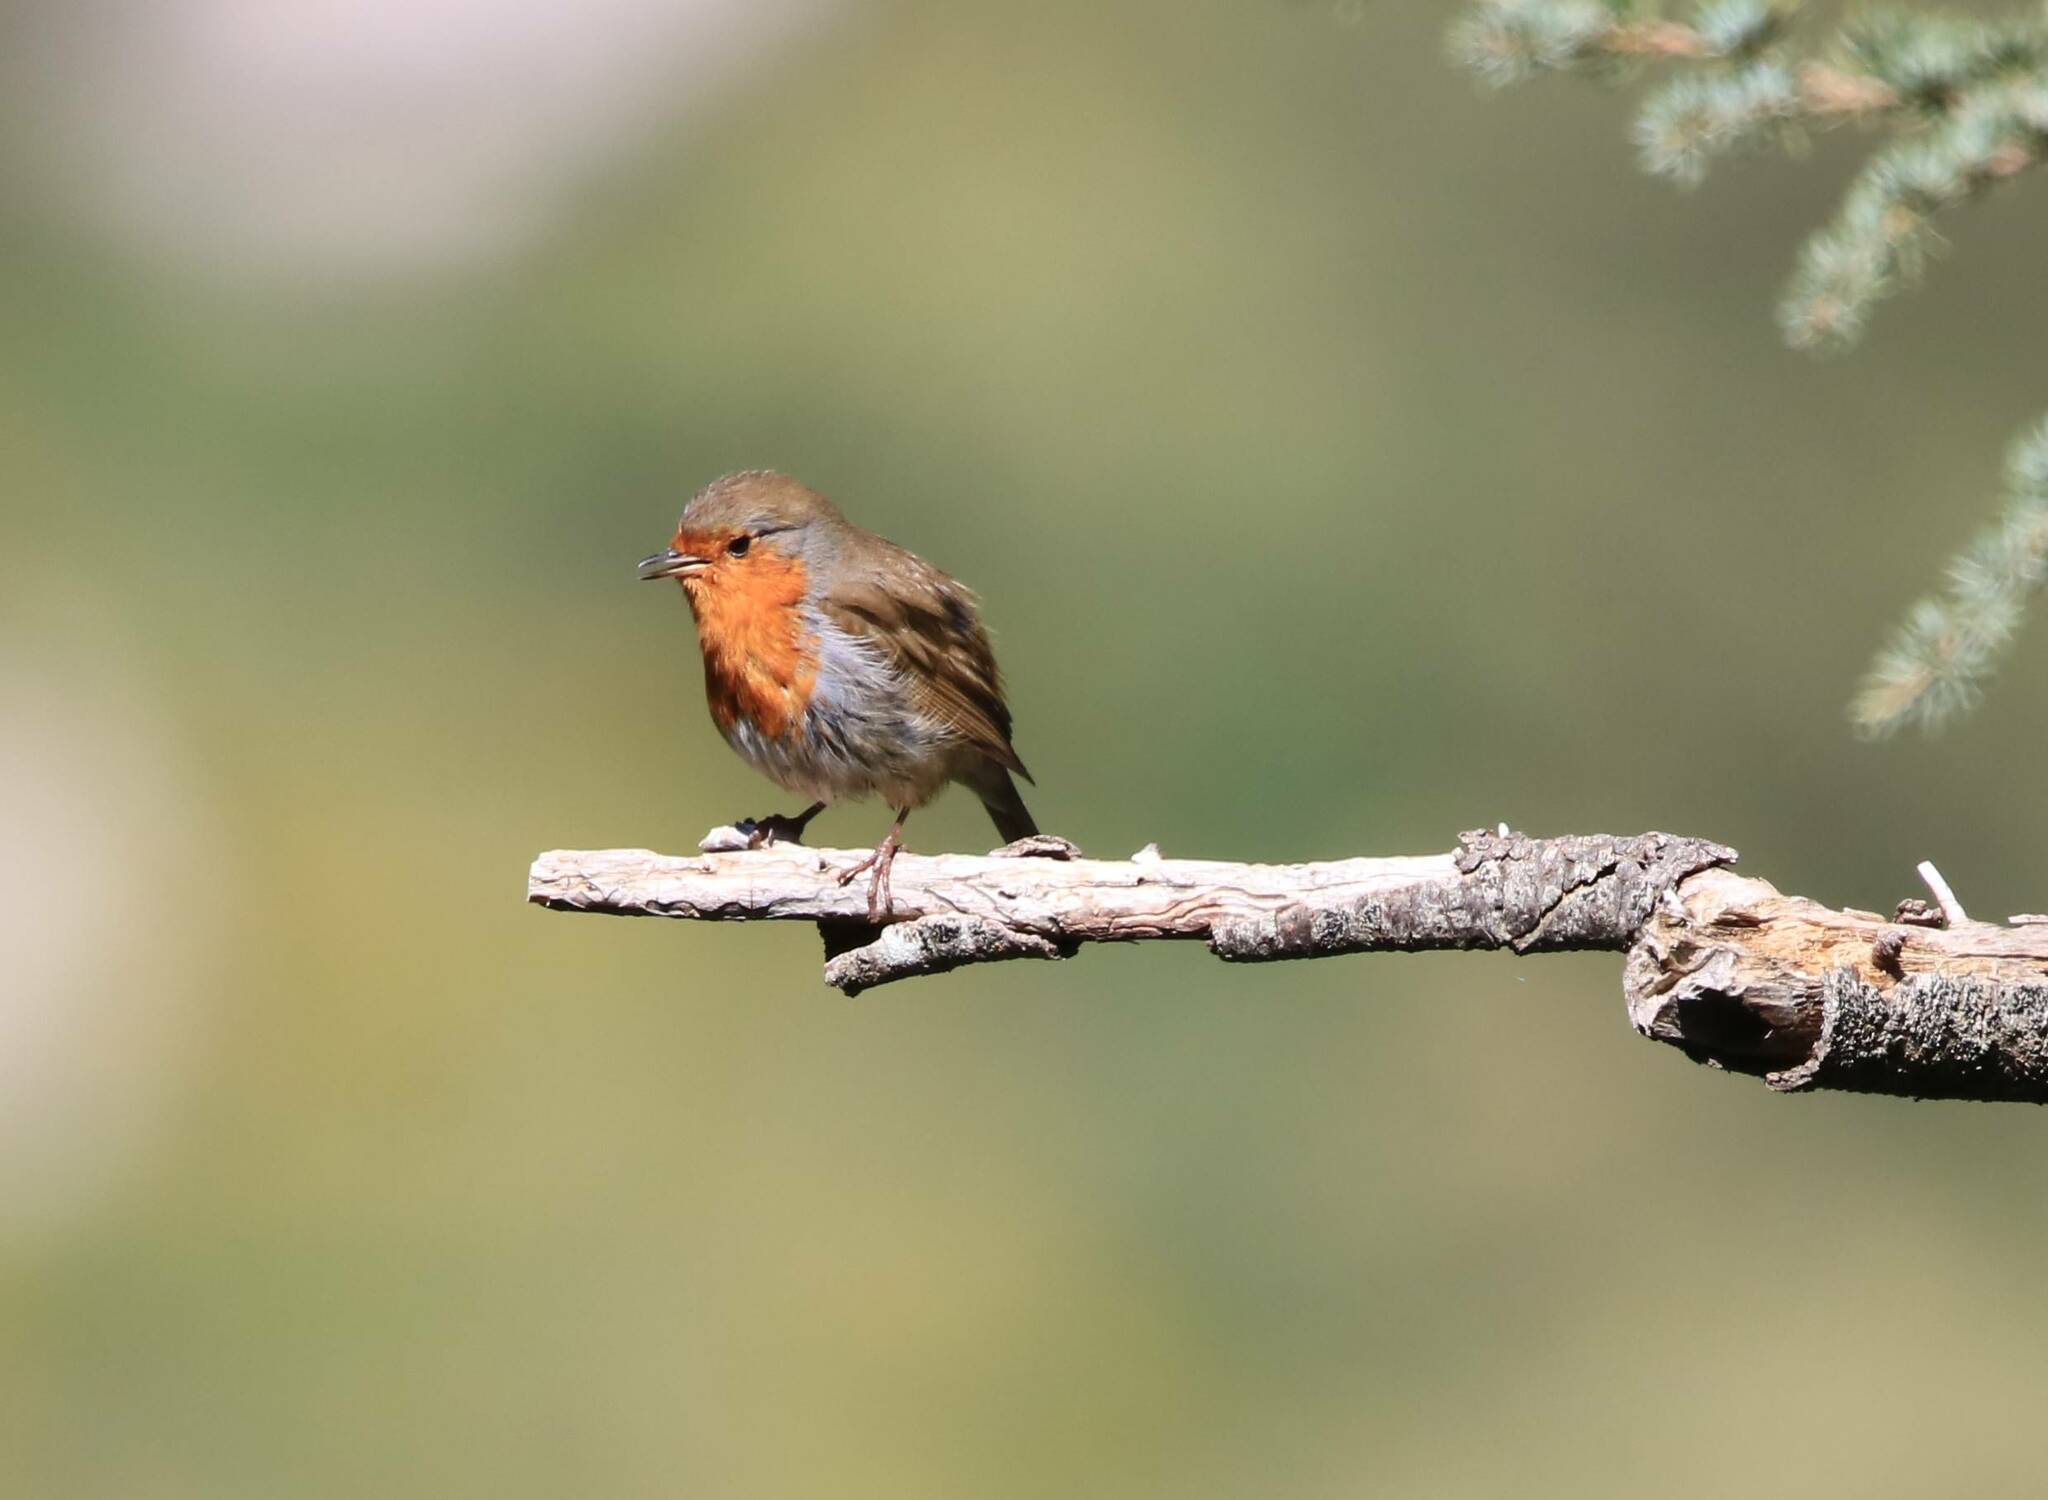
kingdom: Animalia
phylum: Chordata
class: Aves
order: Passeriformes
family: Muscicapidae
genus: Erithacus
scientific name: Erithacus rubecula
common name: European robin
